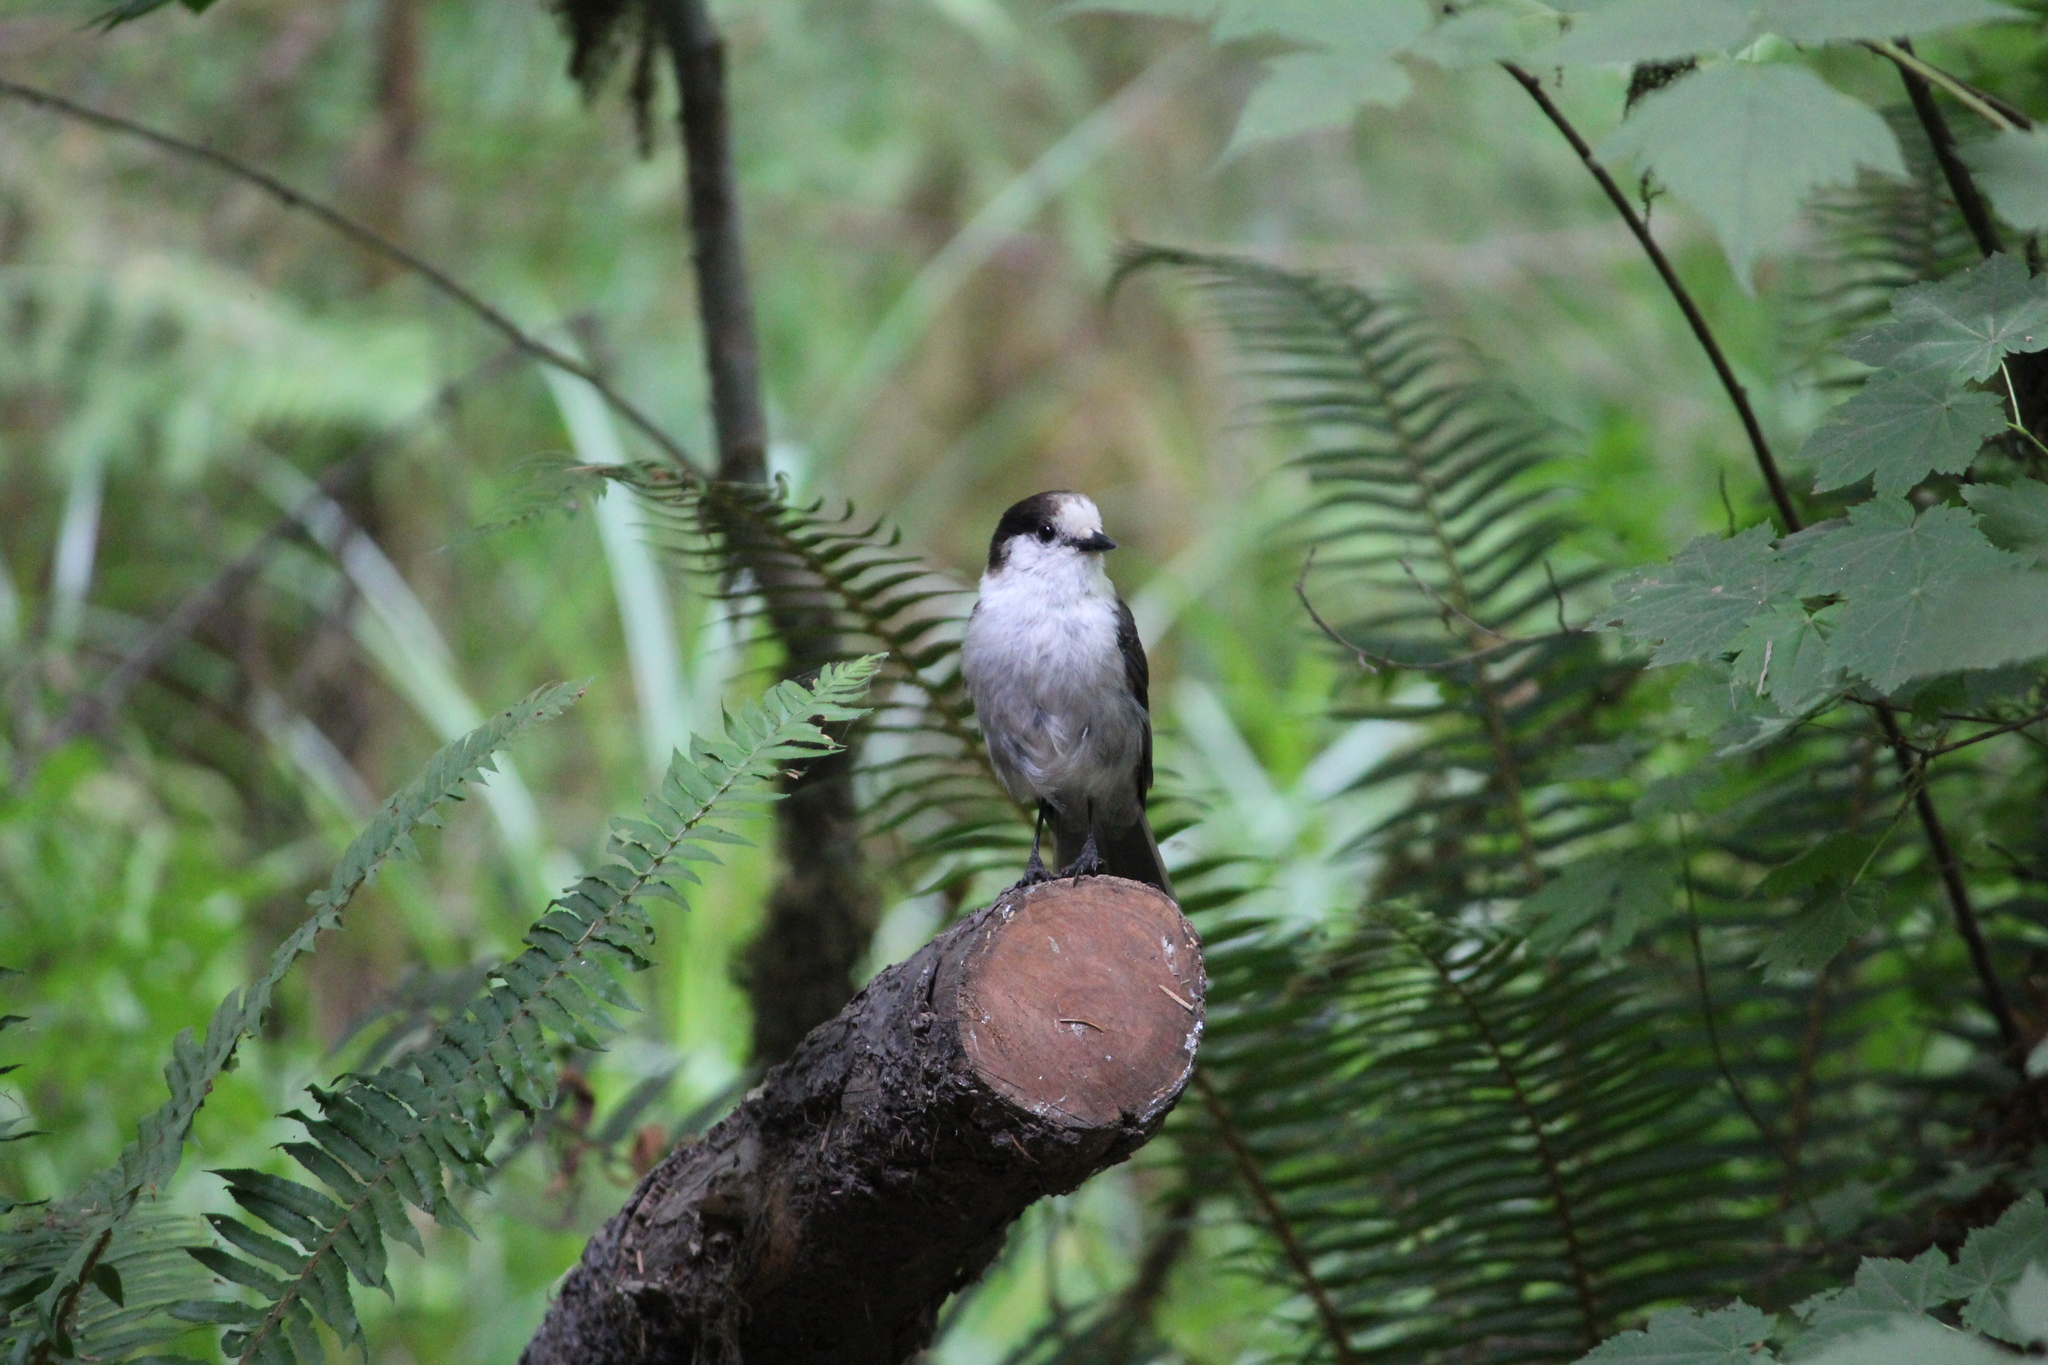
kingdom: Animalia
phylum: Chordata
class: Aves
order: Passeriformes
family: Corvidae
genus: Perisoreus
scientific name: Perisoreus canadensis
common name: Gray jay
